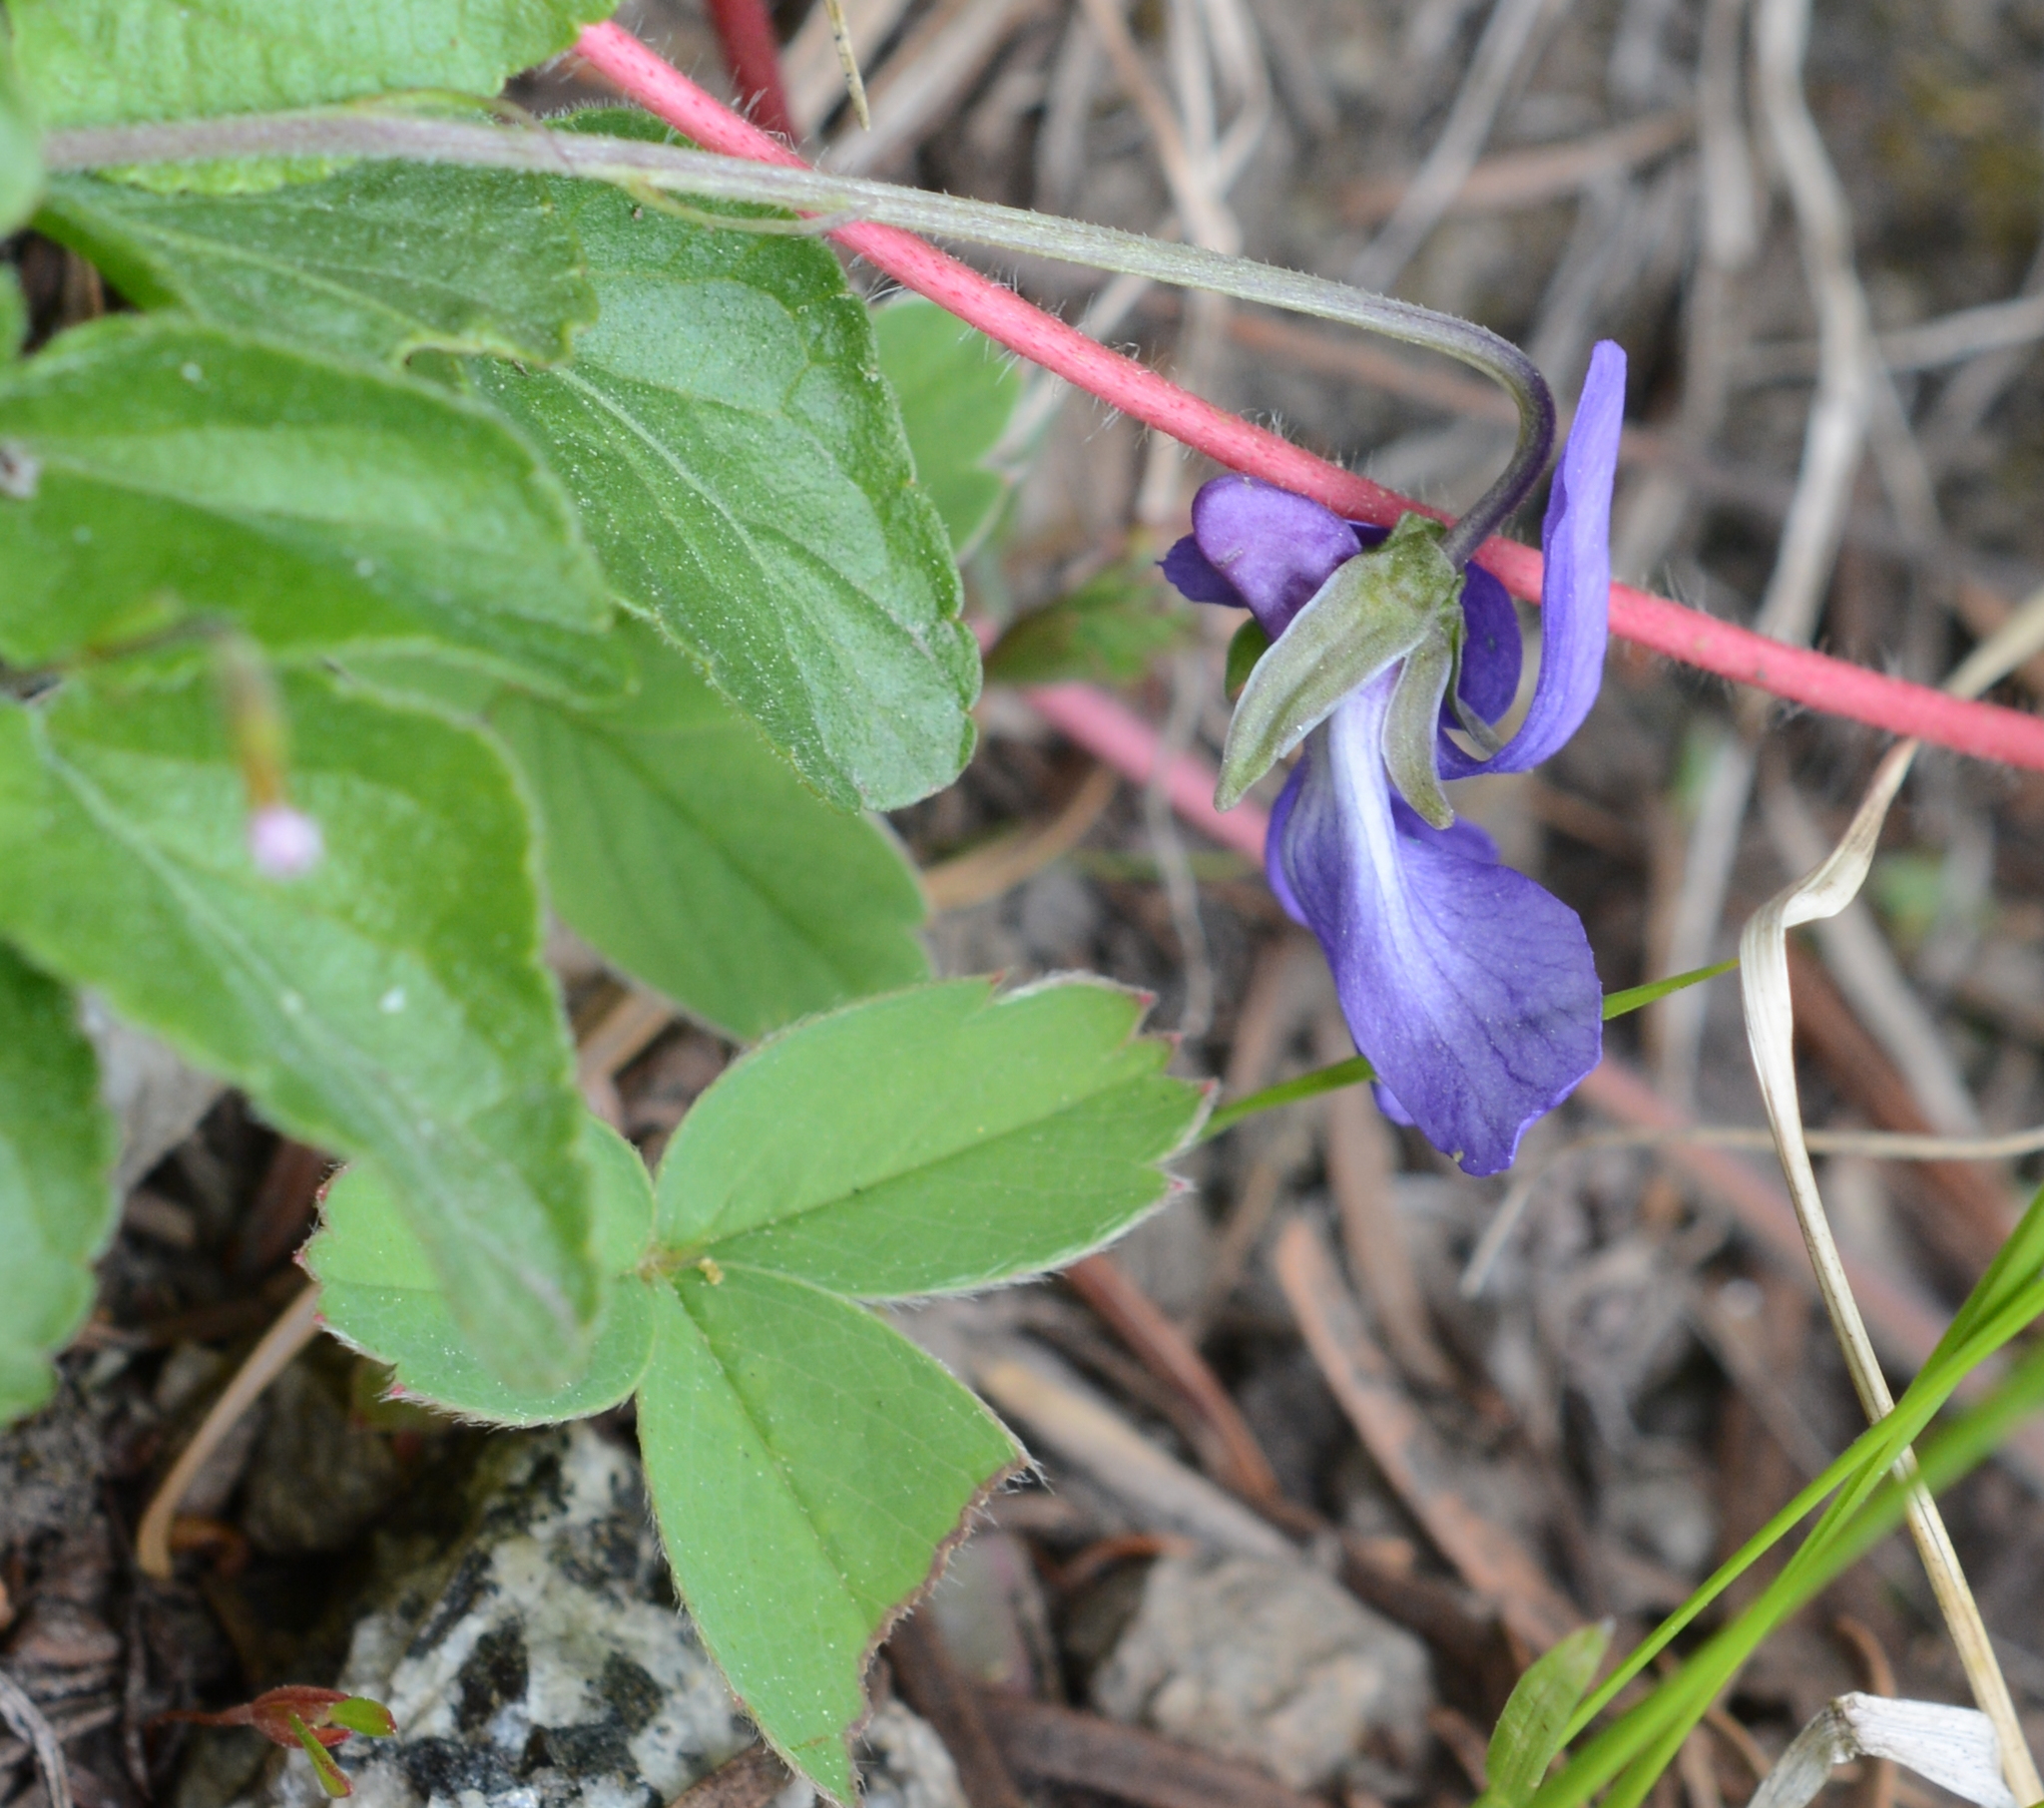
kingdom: Plantae
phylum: Tracheophyta
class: Magnoliopsida
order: Malpighiales
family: Violaceae
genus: Viola
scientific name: Viola adunca
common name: Sand violet
